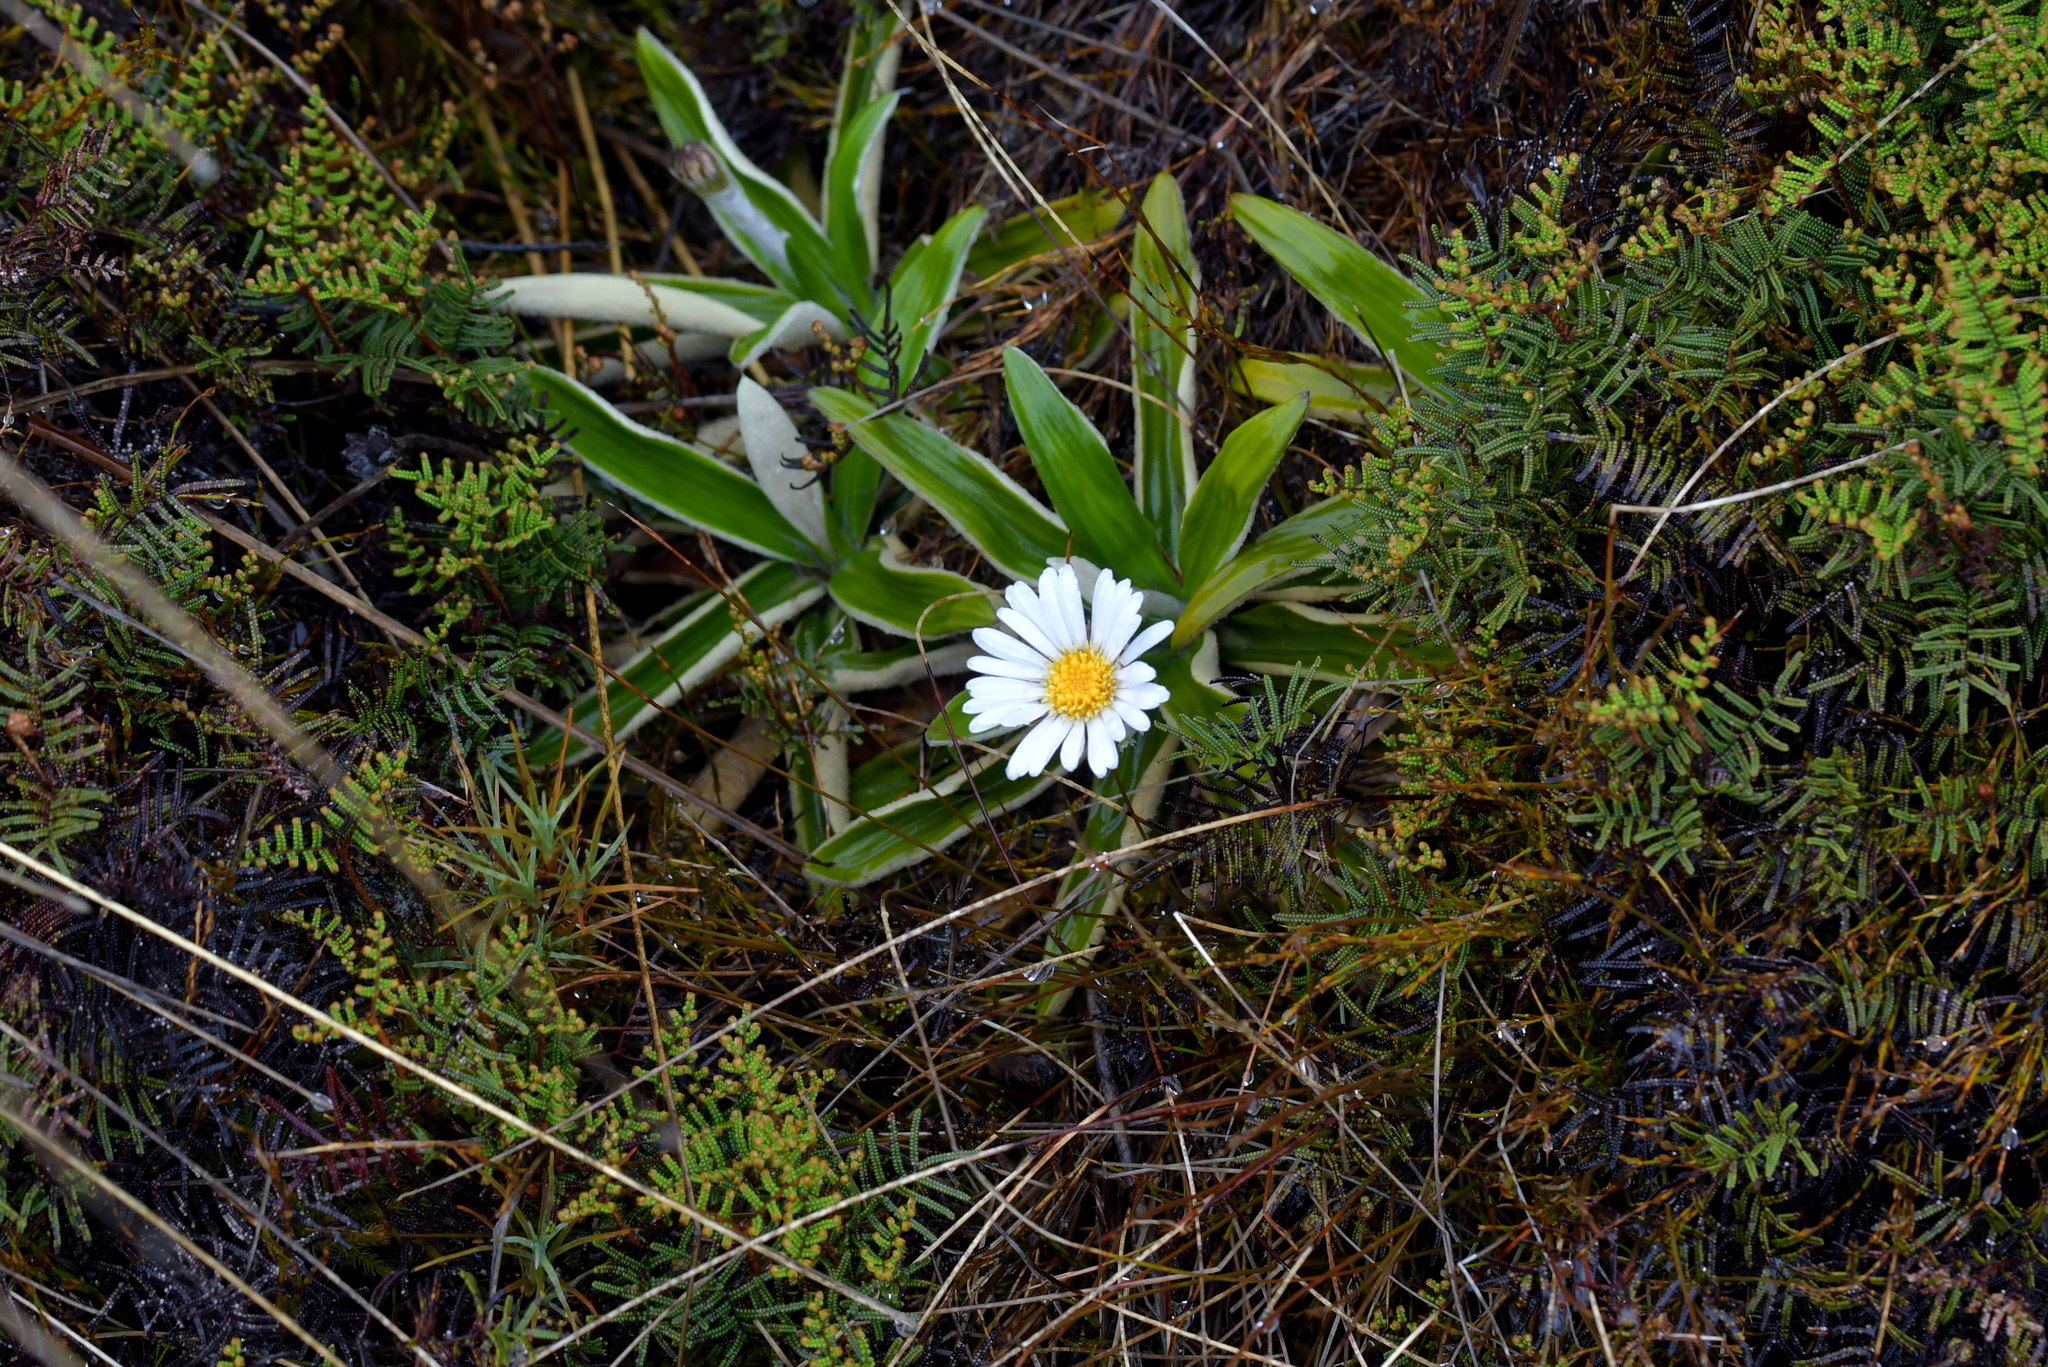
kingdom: Plantae
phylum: Tracheophyta
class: Magnoliopsida
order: Asterales
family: Asteraceae
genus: Celmisia
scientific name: Celmisia spectabilis
